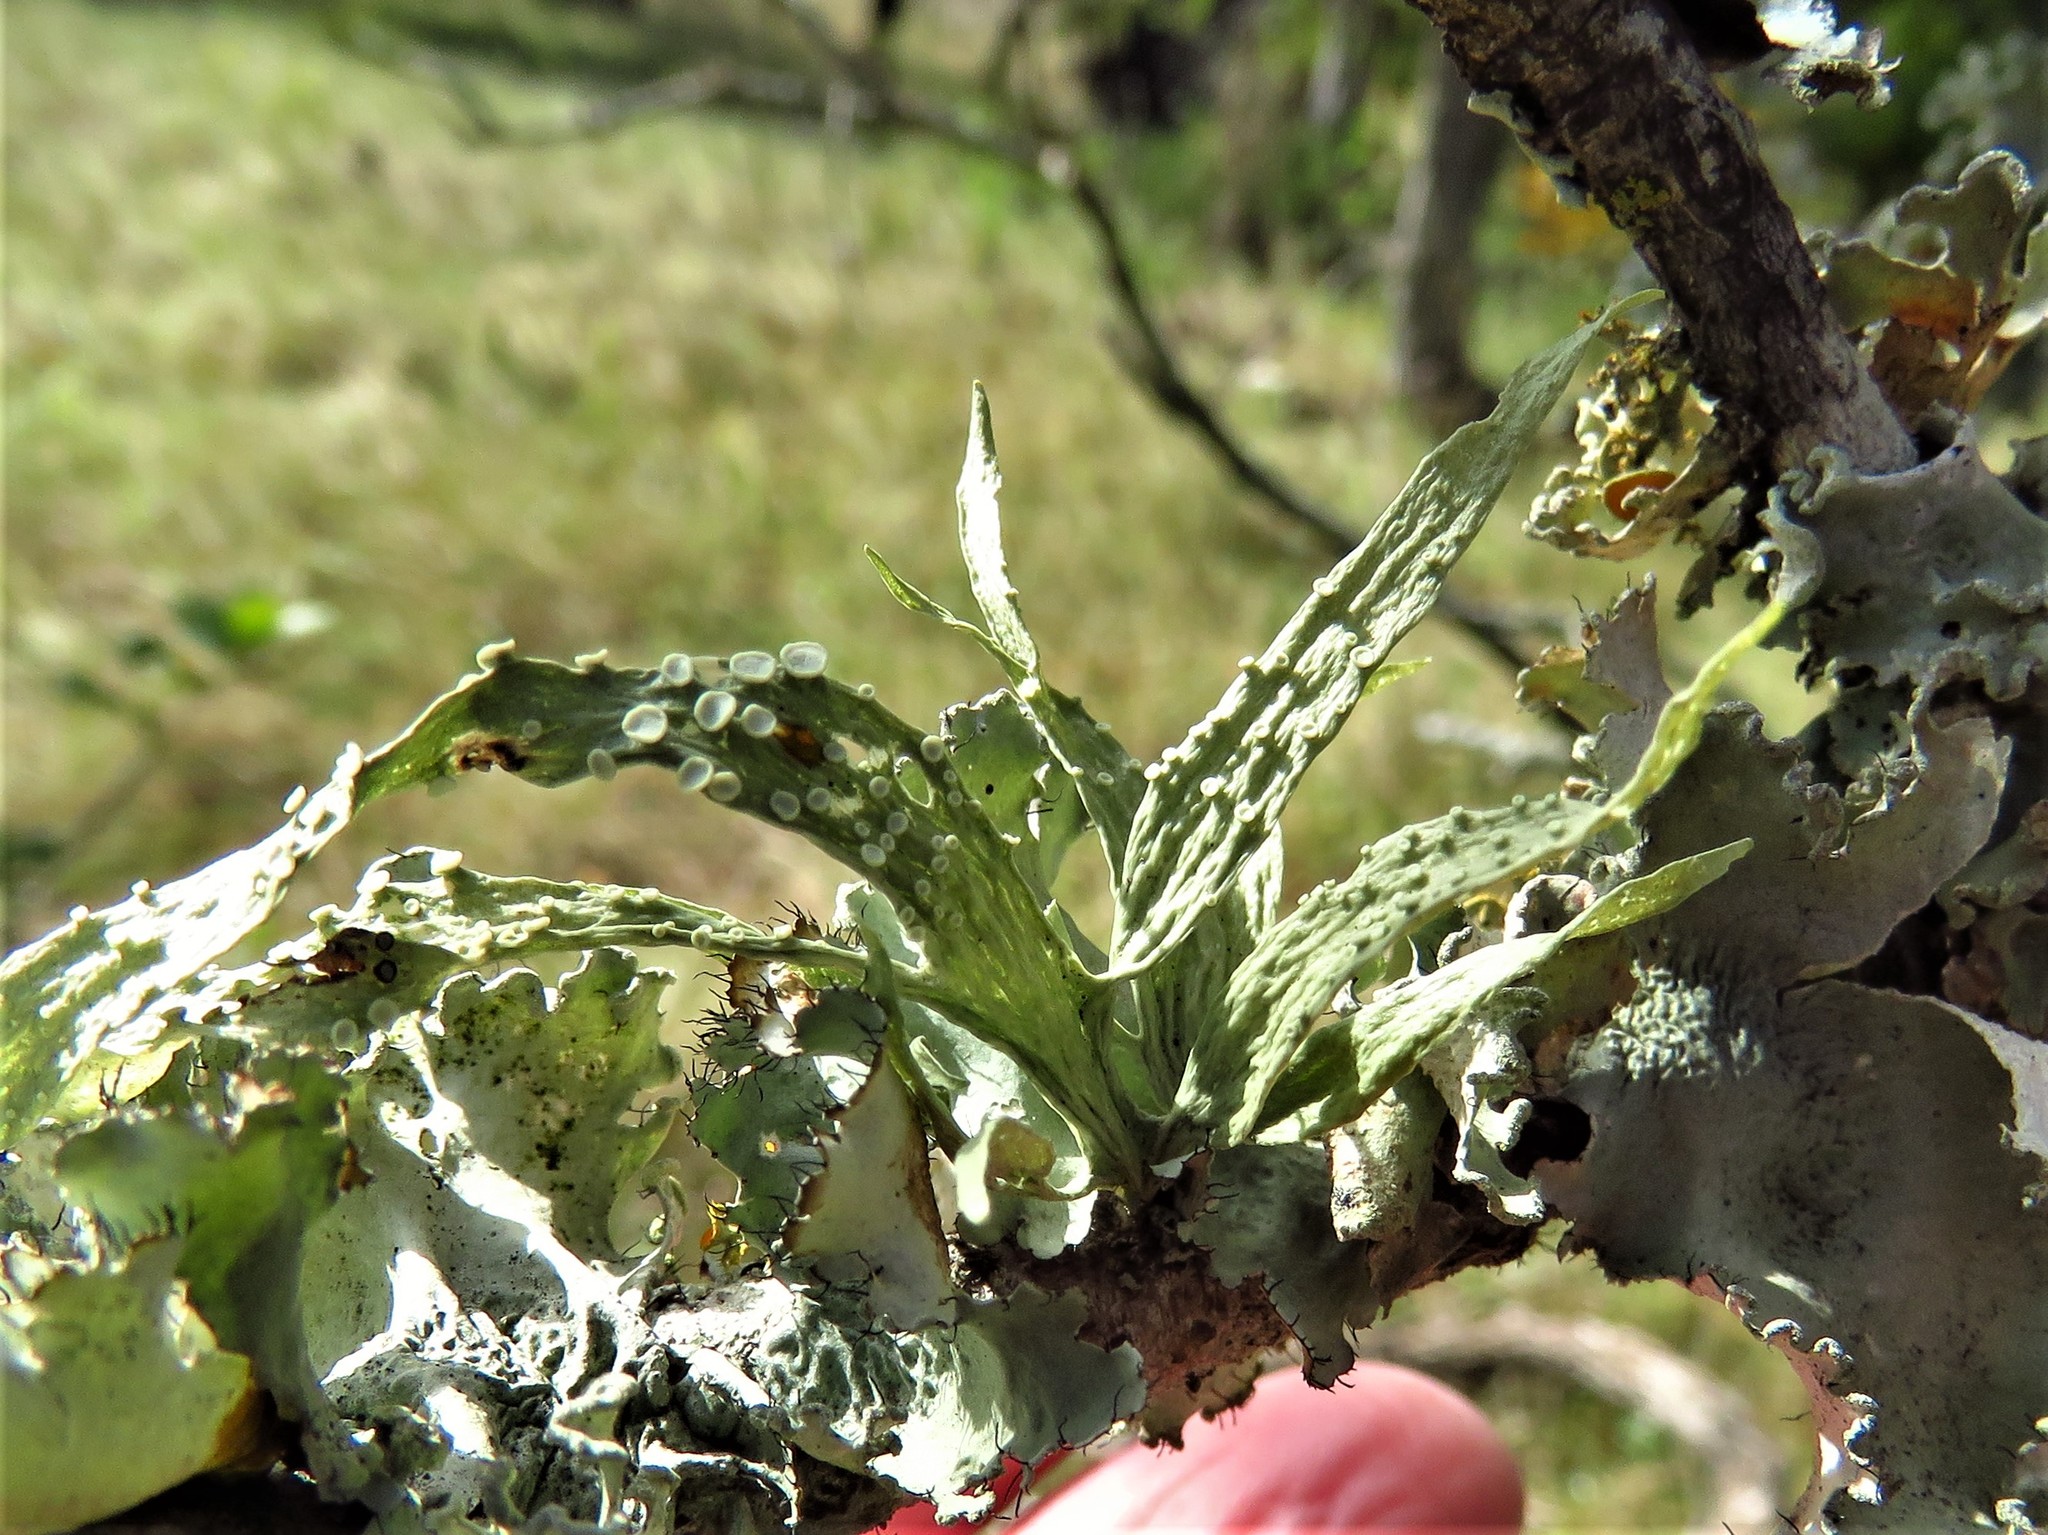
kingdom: Fungi
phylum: Ascomycota
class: Lecanoromycetes
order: Lecanorales
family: Ramalinaceae
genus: Ramalina
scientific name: Ramalina celastri
